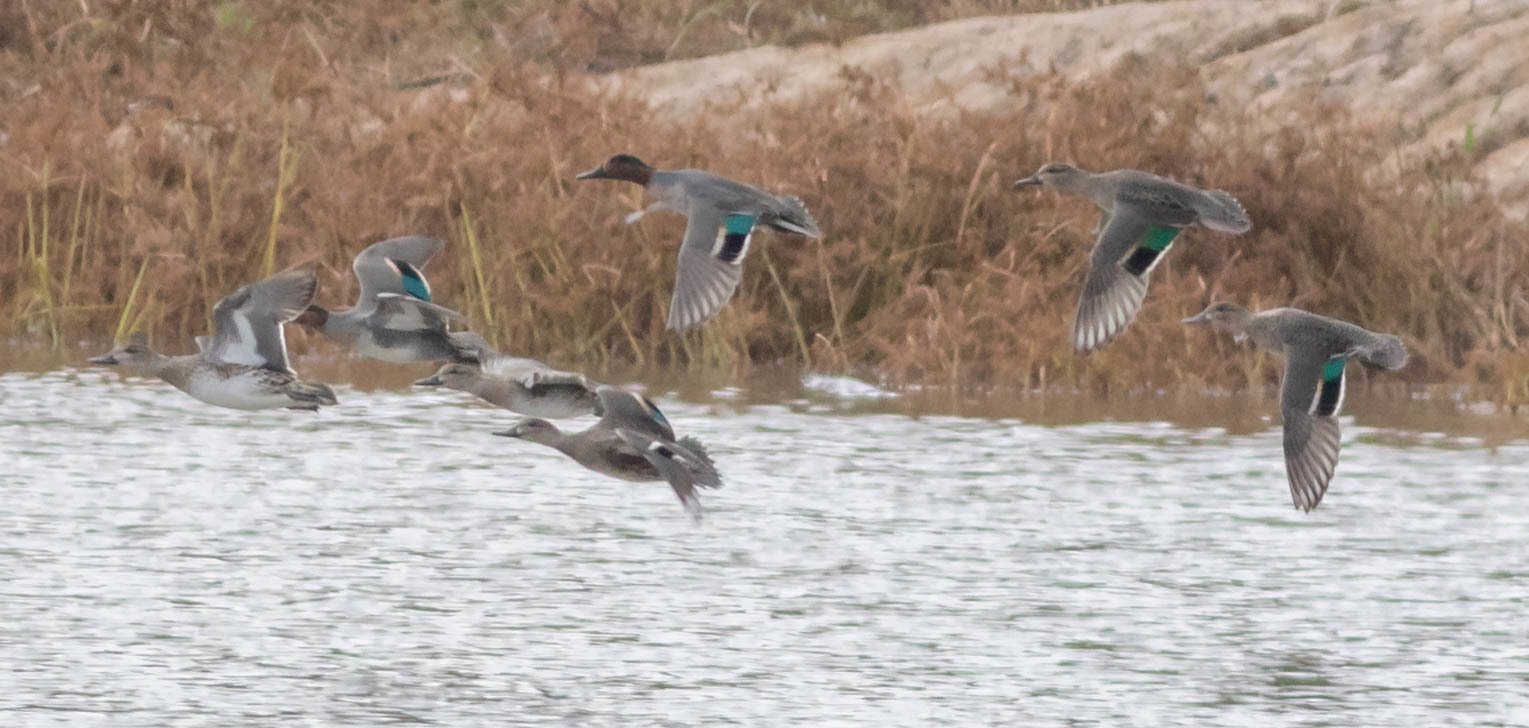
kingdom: Animalia
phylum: Chordata
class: Aves
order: Anseriformes
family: Anatidae
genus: Anas
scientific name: Anas crecca
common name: Eurasian teal
